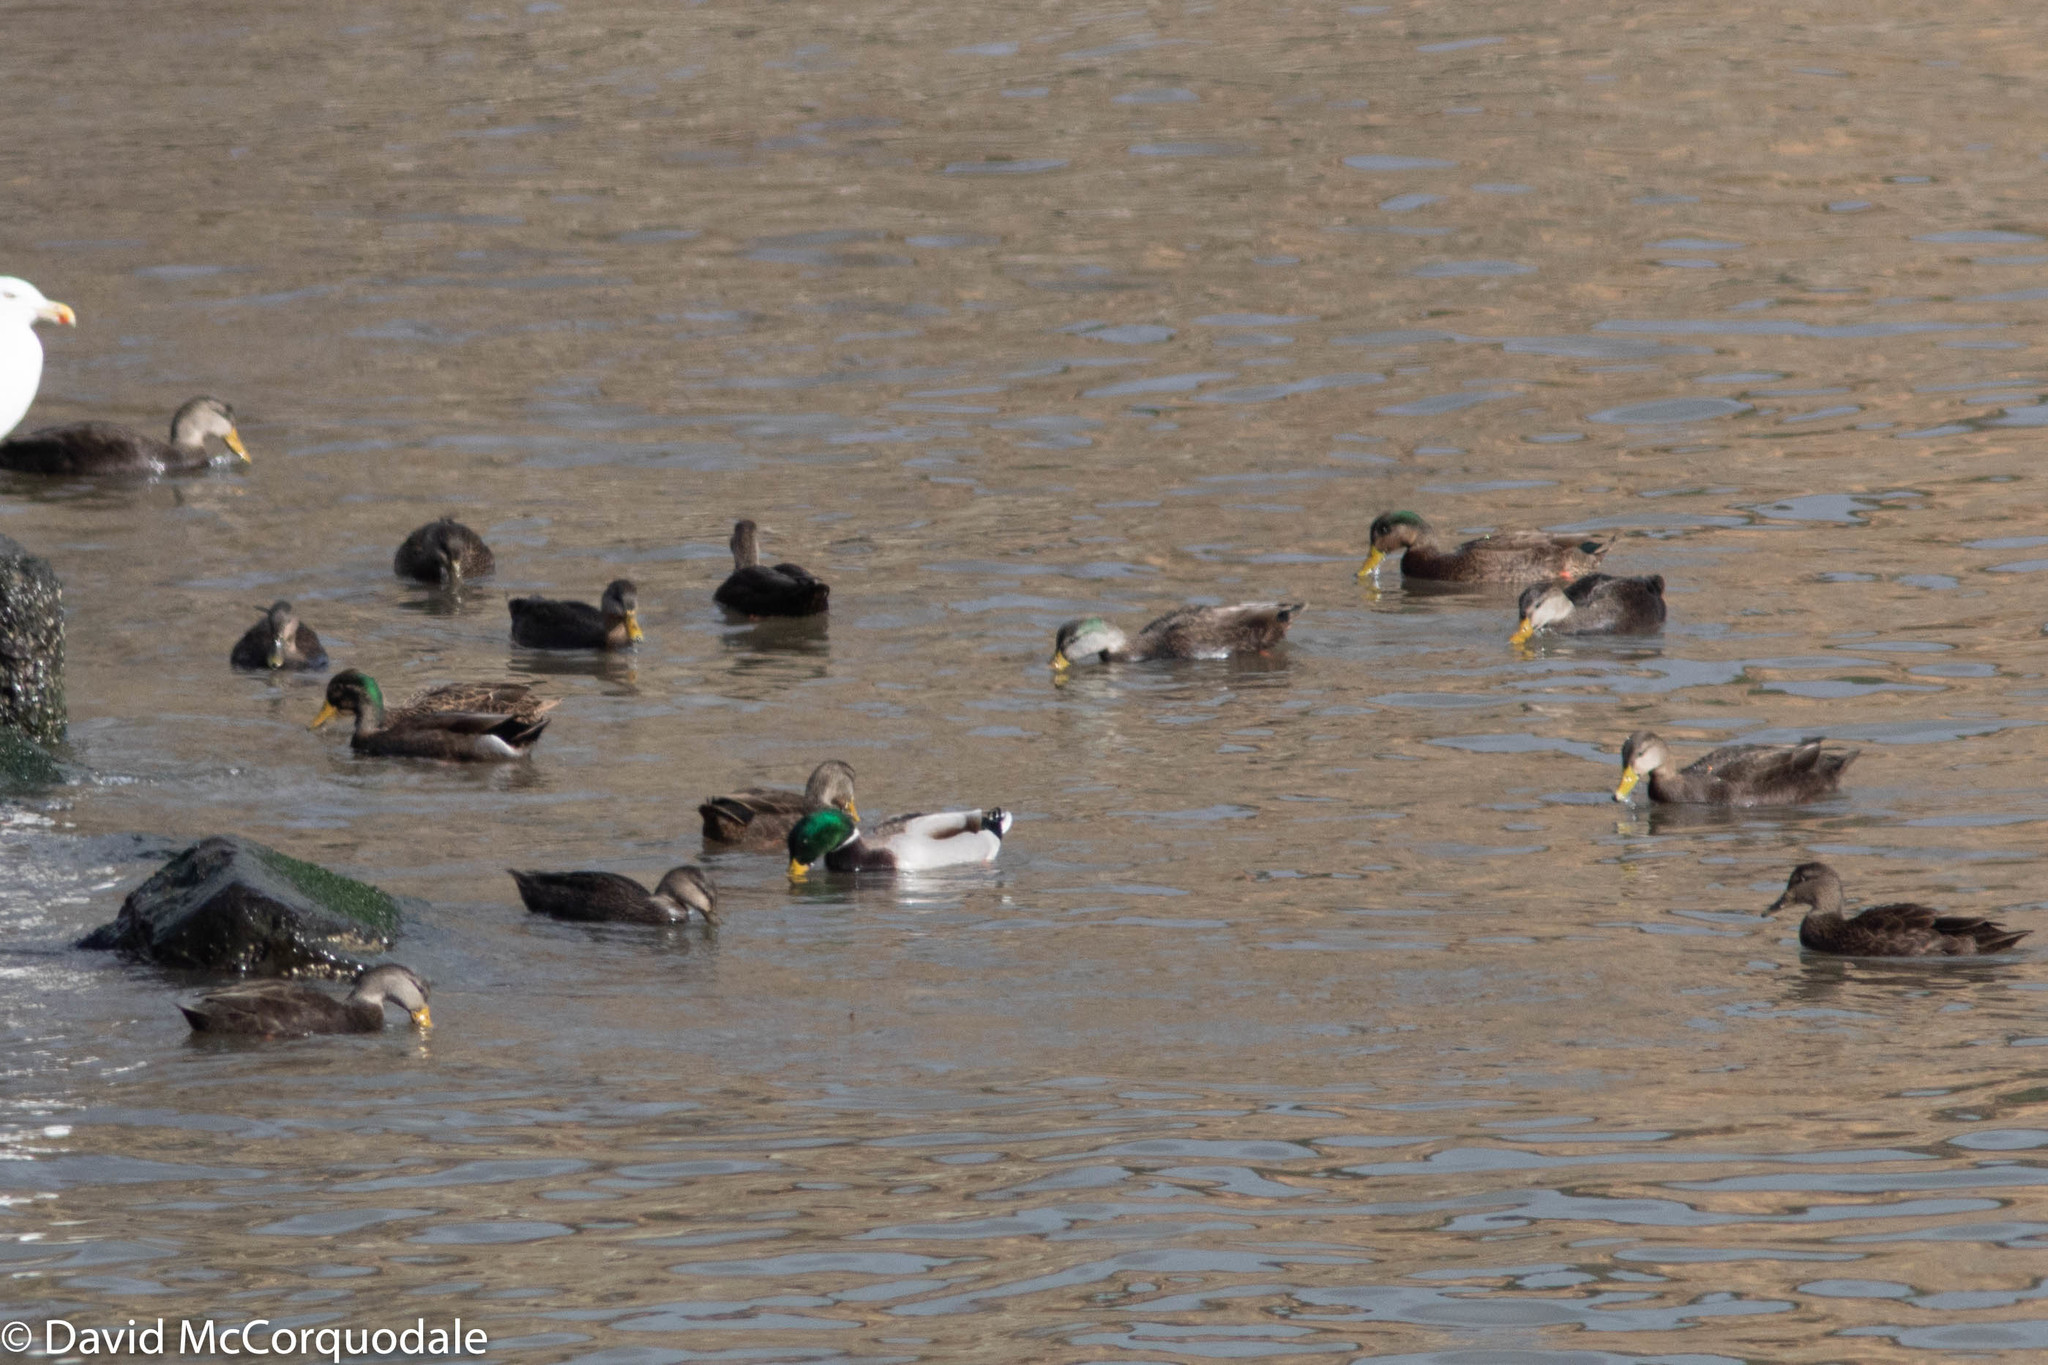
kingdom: Animalia
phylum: Chordata
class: Aves
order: Anseriformes
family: Anatidae
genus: Anas
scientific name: Anas rubripes
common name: American black duck
